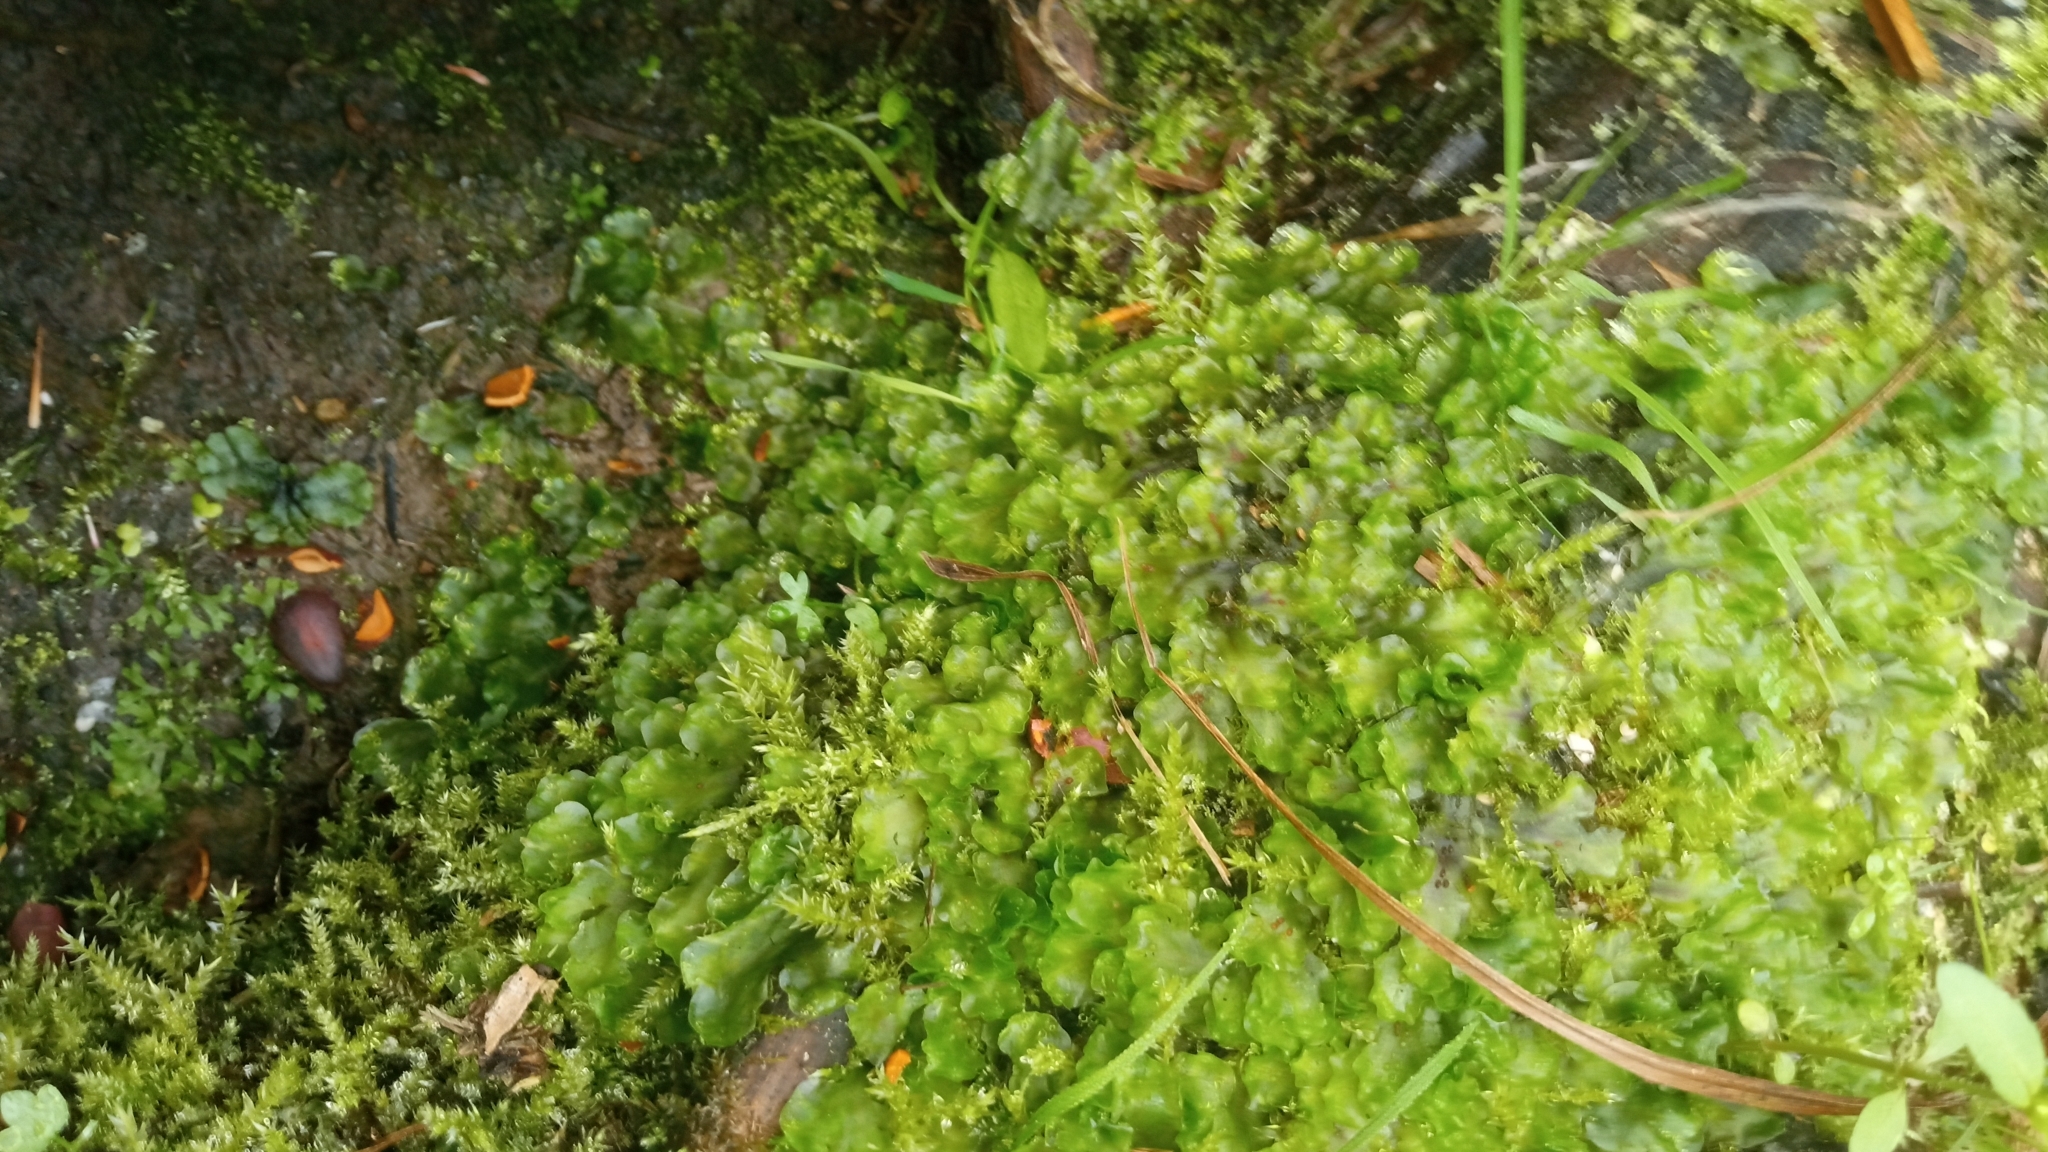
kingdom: Plantae
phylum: Marchantiophyta
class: Jungermanniopsida
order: Pelliales
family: Pelliaceae
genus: Pellia
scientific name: Pellia neesiana
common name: Nees  pellia
